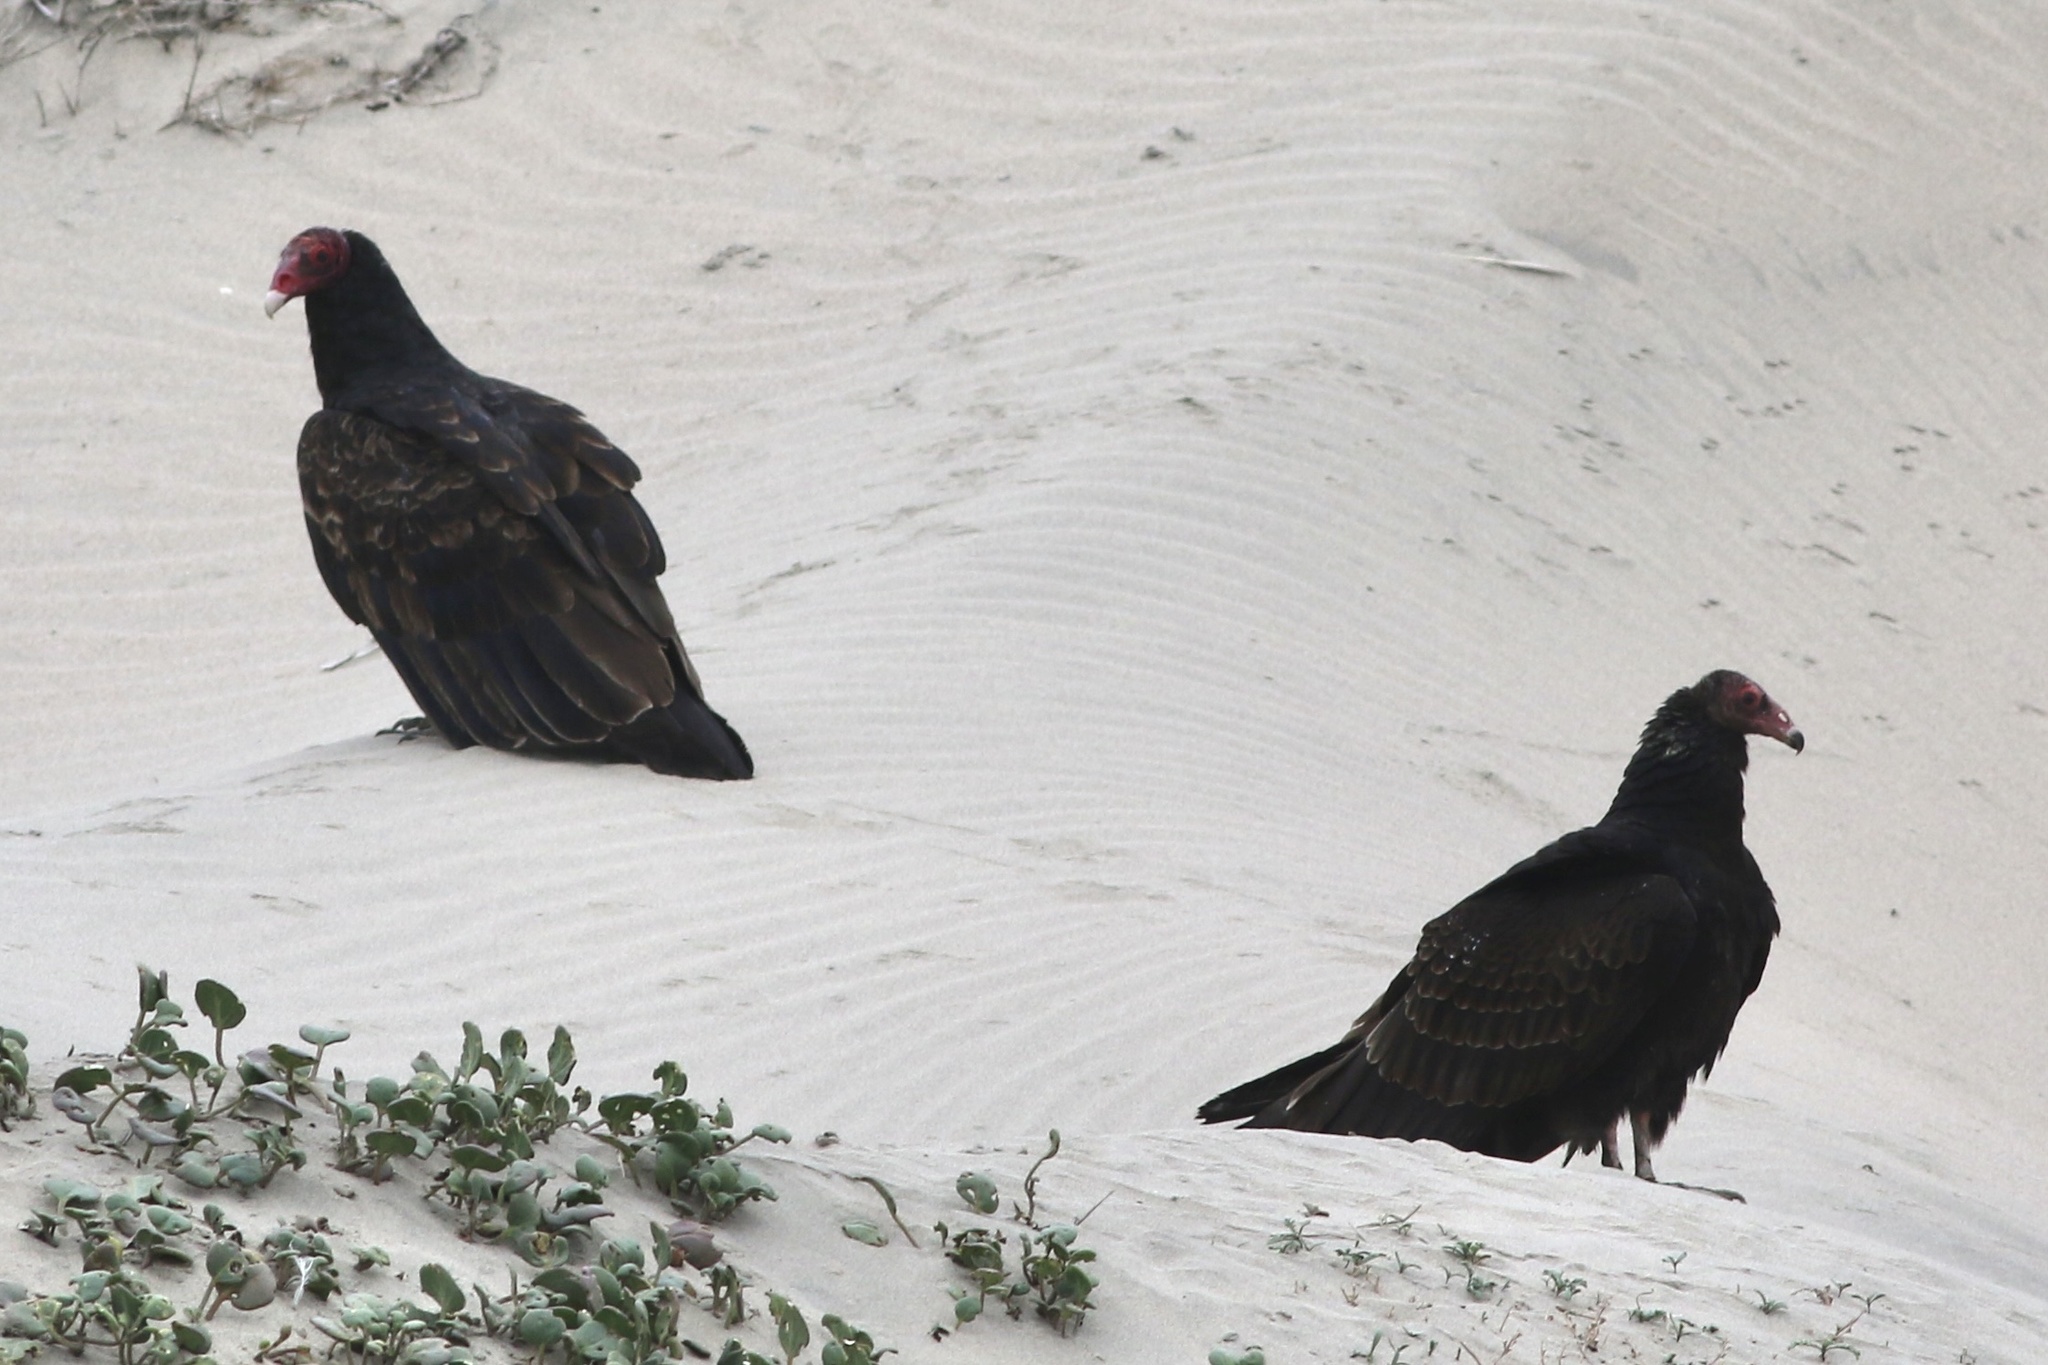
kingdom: Animalia
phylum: Chordata
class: Aves
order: Accipitriformes
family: Cathartidae
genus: Cathartes
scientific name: Cathartes aura
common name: Turkey vulture
